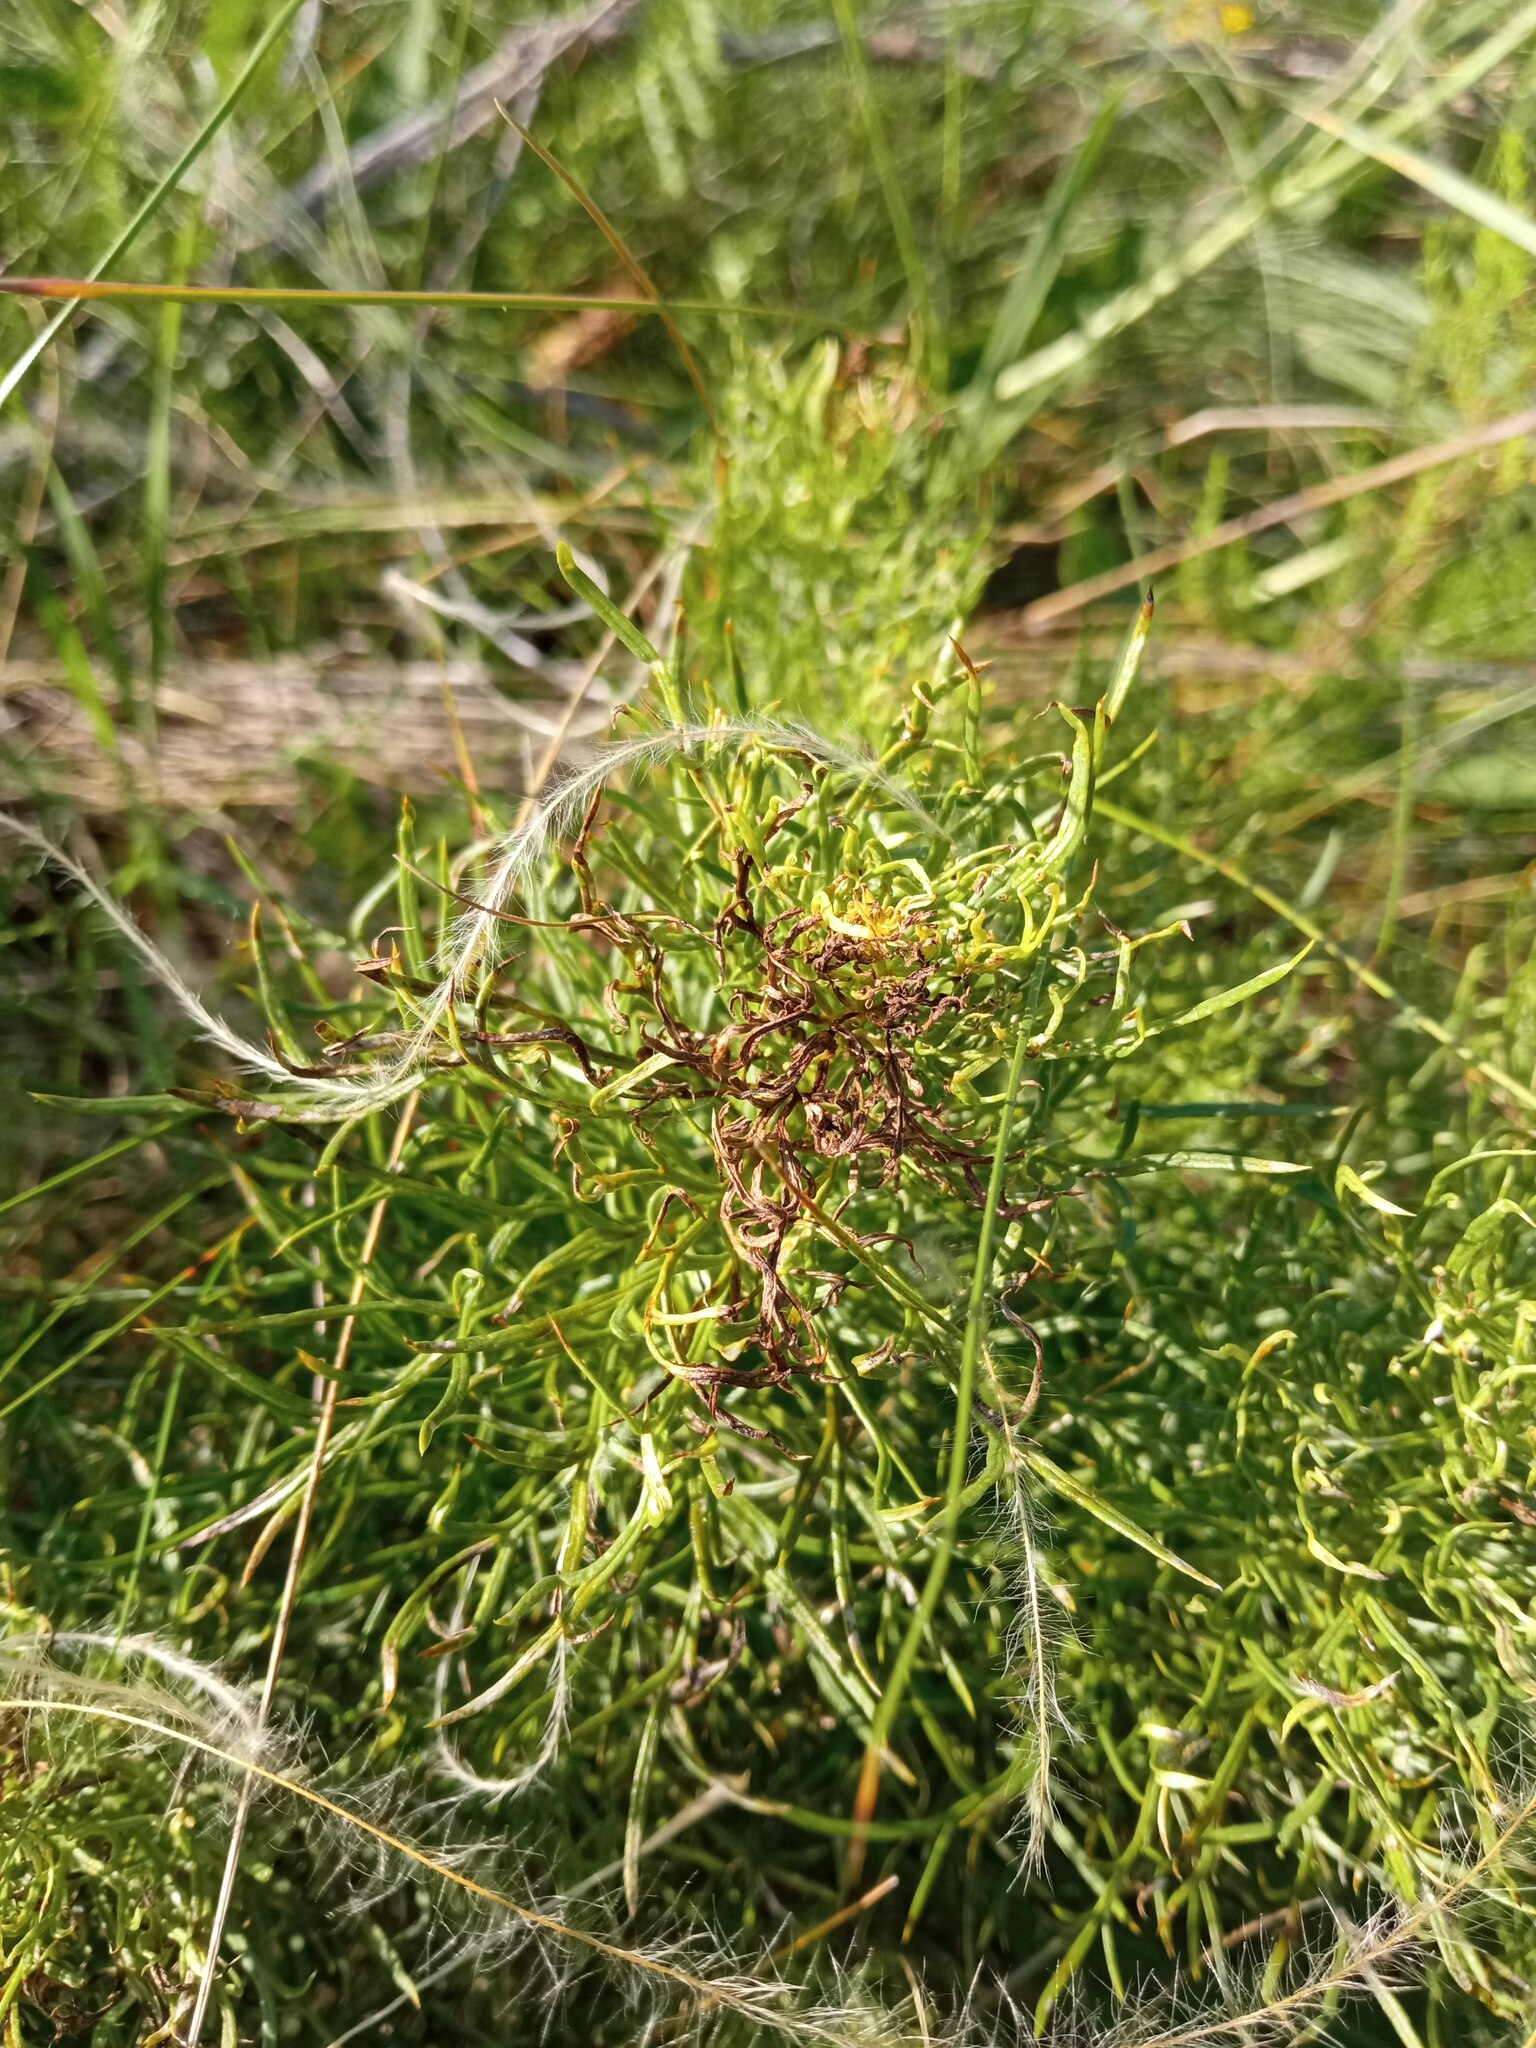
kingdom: Plantae
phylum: Tracheophyta
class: Magnoliopsida
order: Ranunculales
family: Ranunculaceae
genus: Adonis
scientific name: Adonis vernalis
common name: Yellow pheasants-eye
